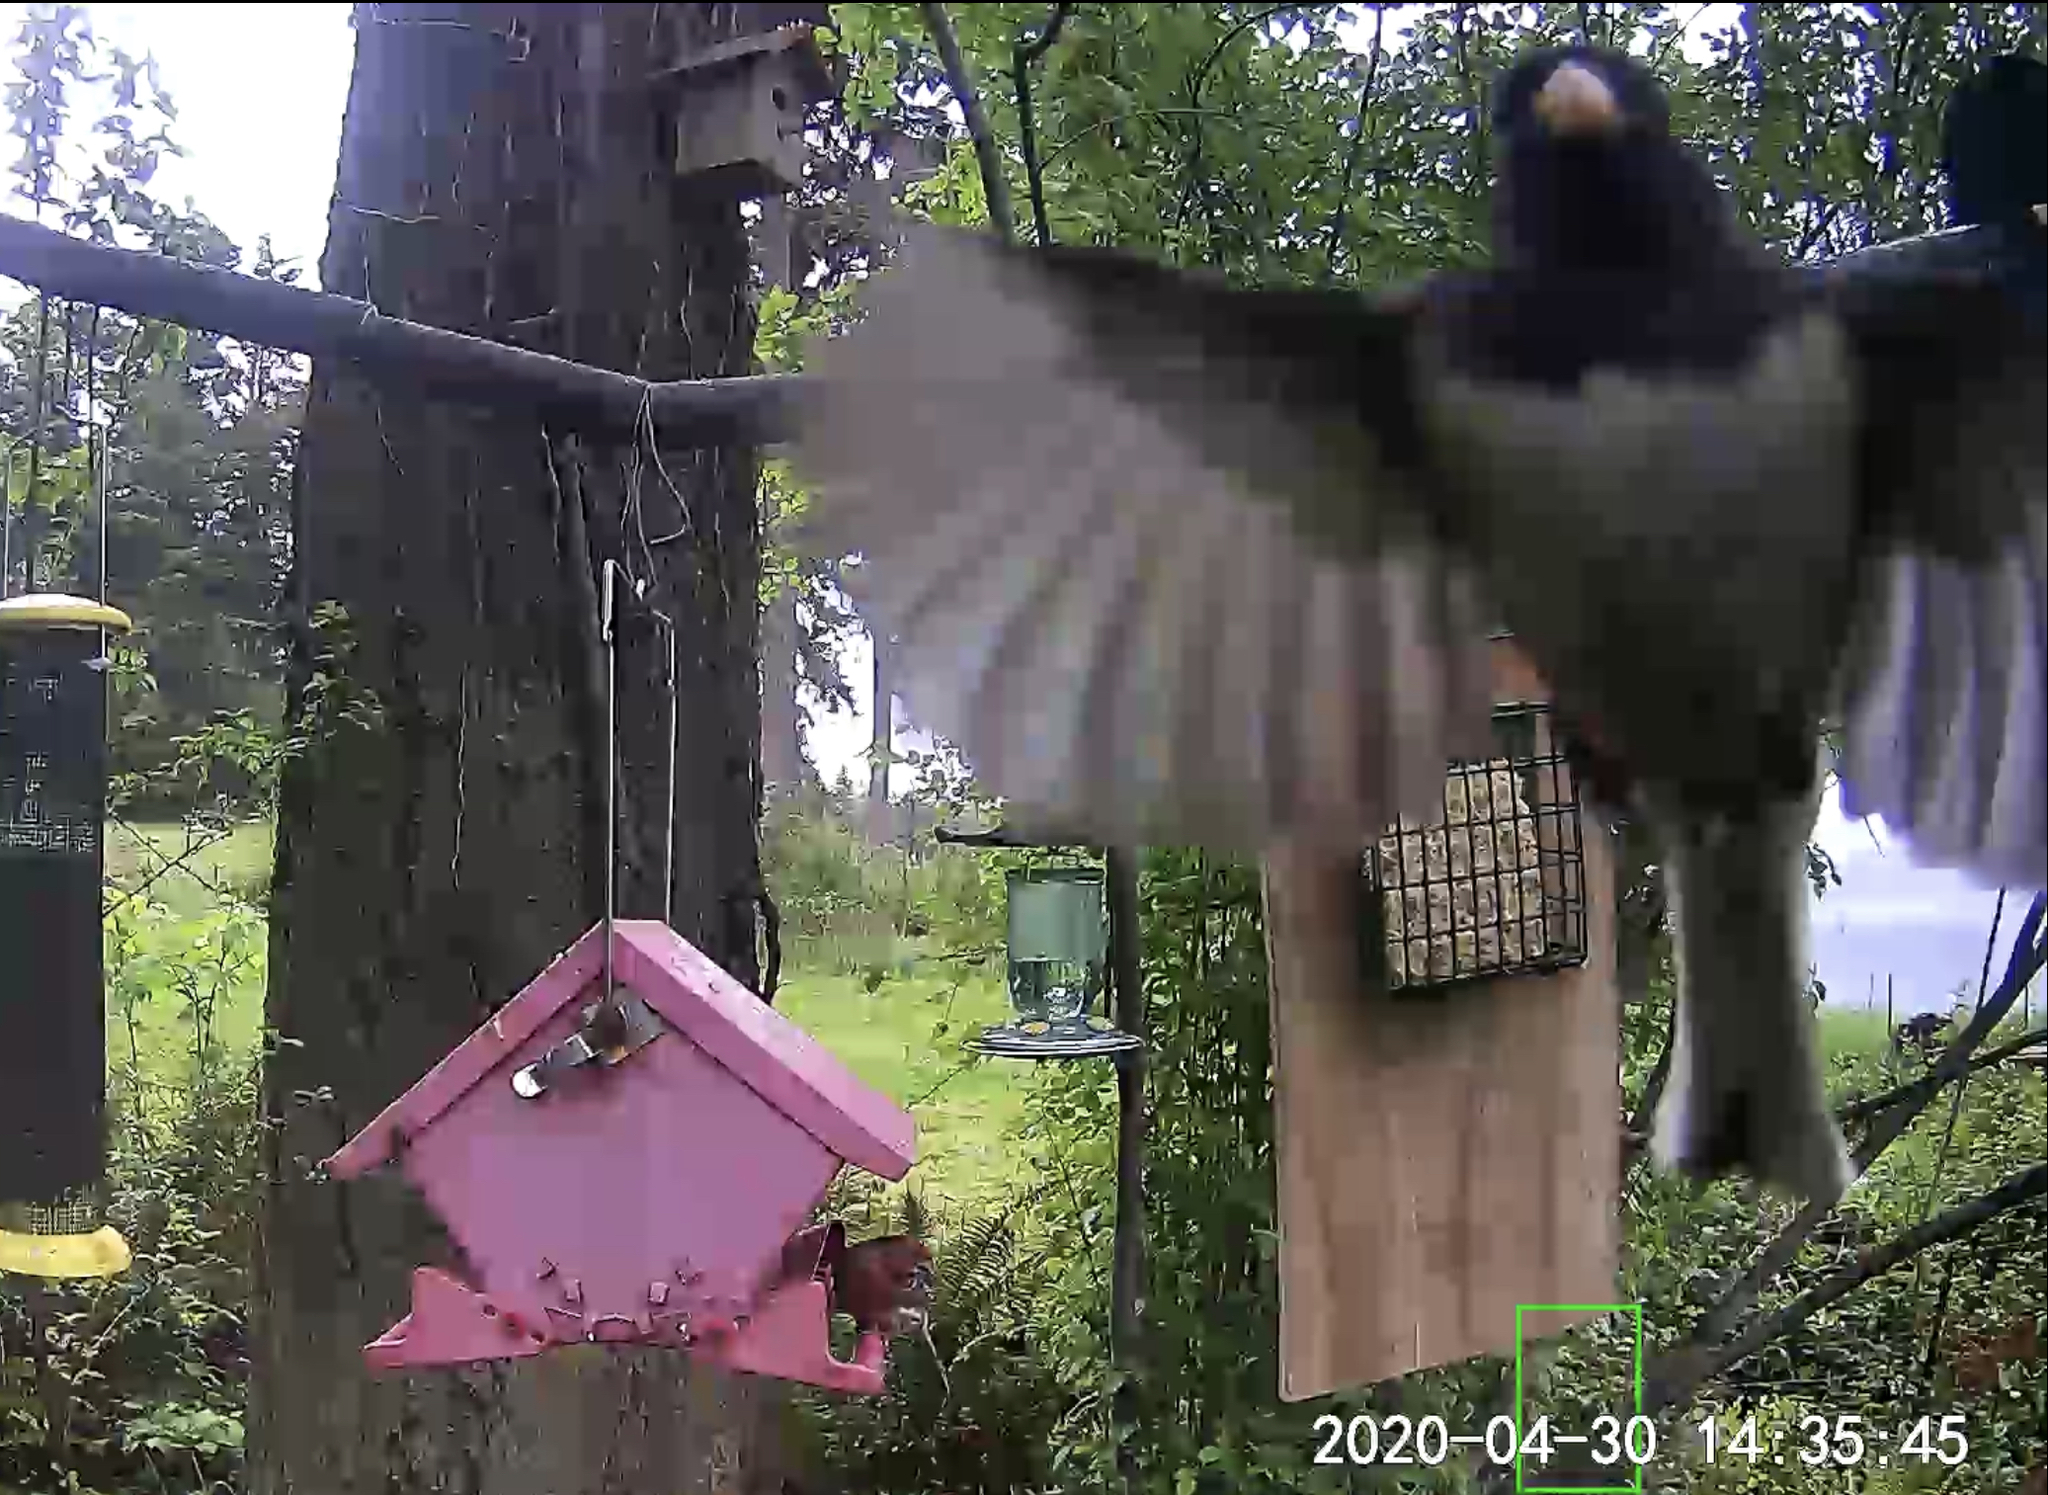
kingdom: Animalia
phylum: Chordata
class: Aves
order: Passeriformes
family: Passerellidae
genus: Junco
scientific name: Junco hyemalis
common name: Dark-eyed junco
